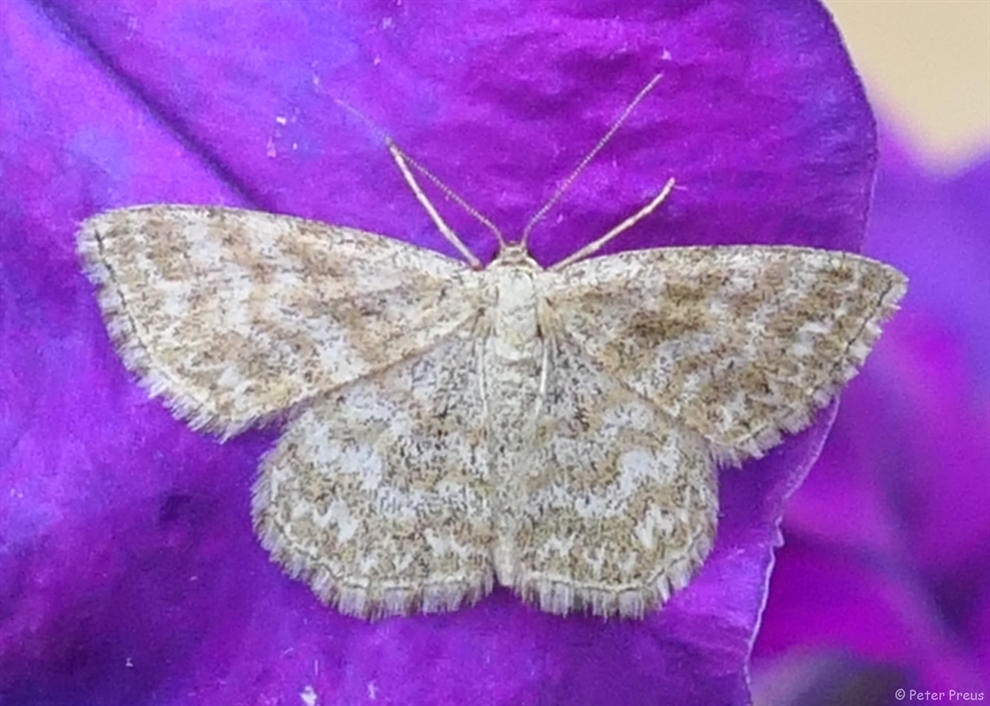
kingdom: Animalia
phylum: Arthropoda
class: Insecta
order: Lepidoptera
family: Geometridae
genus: Scopula
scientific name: Scopula immorata
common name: Lewes wave
